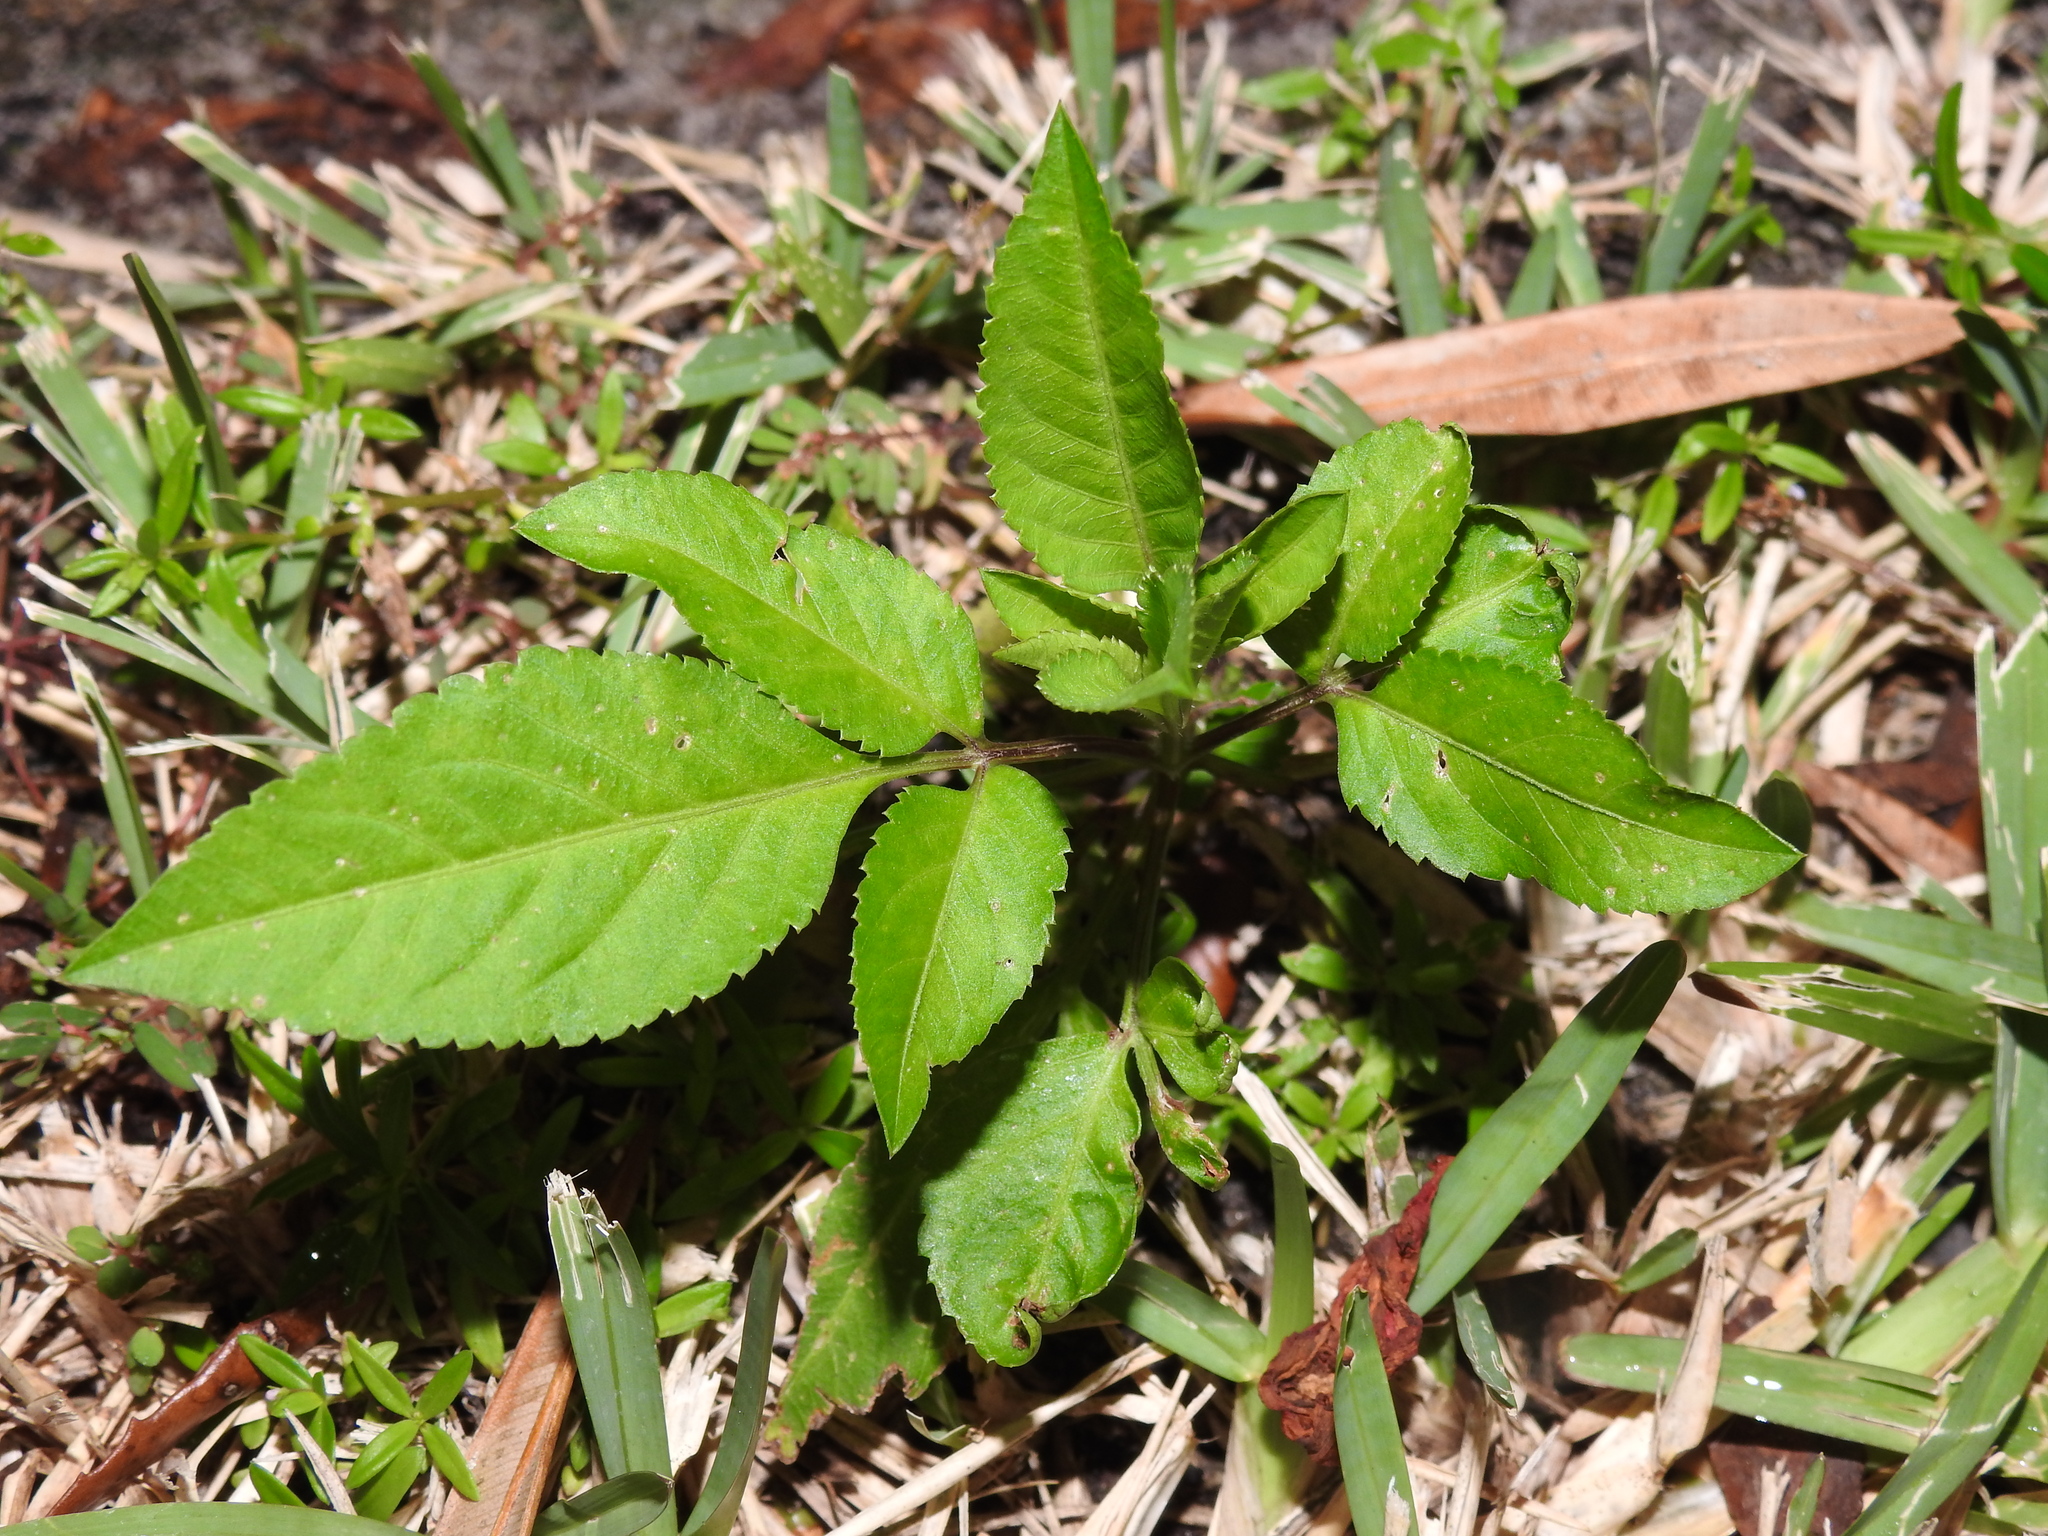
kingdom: Plantae
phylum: Tracheophyta
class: Magnoliopsida
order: Asterales
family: Asteraceae
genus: Bidens
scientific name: Bidens alba
